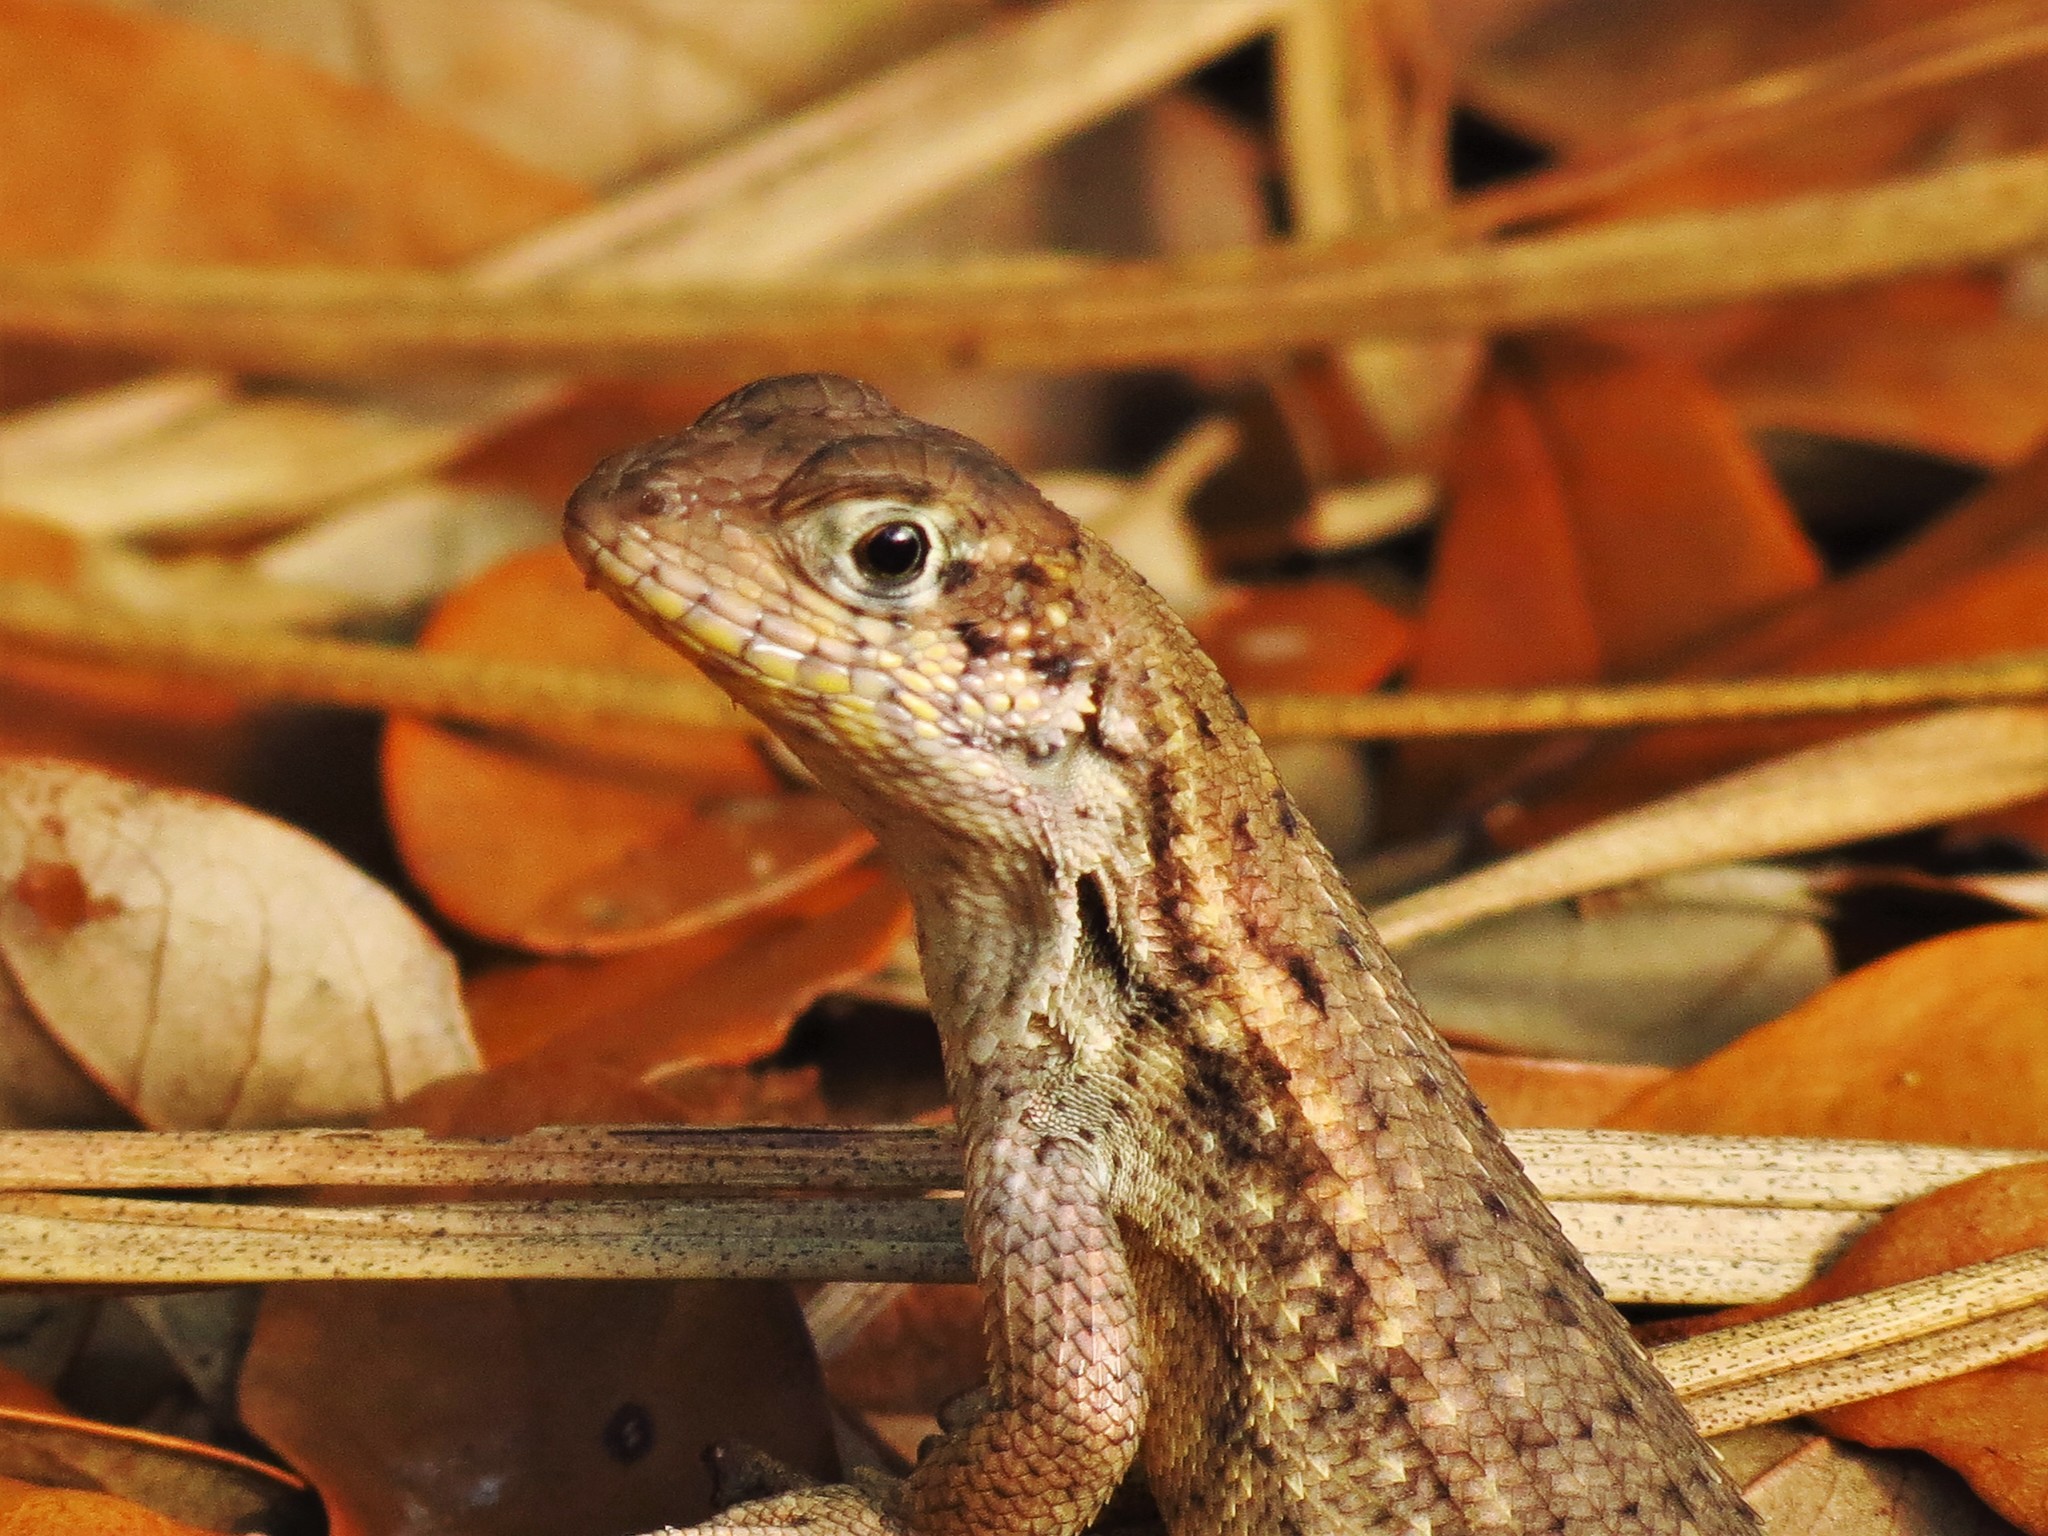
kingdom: Animalia
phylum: Chordata
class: Squamata
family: Leiocephalidae
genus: Leiocephalus
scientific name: Leiocephalus carinatus
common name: Northern curly-tailed lizard
